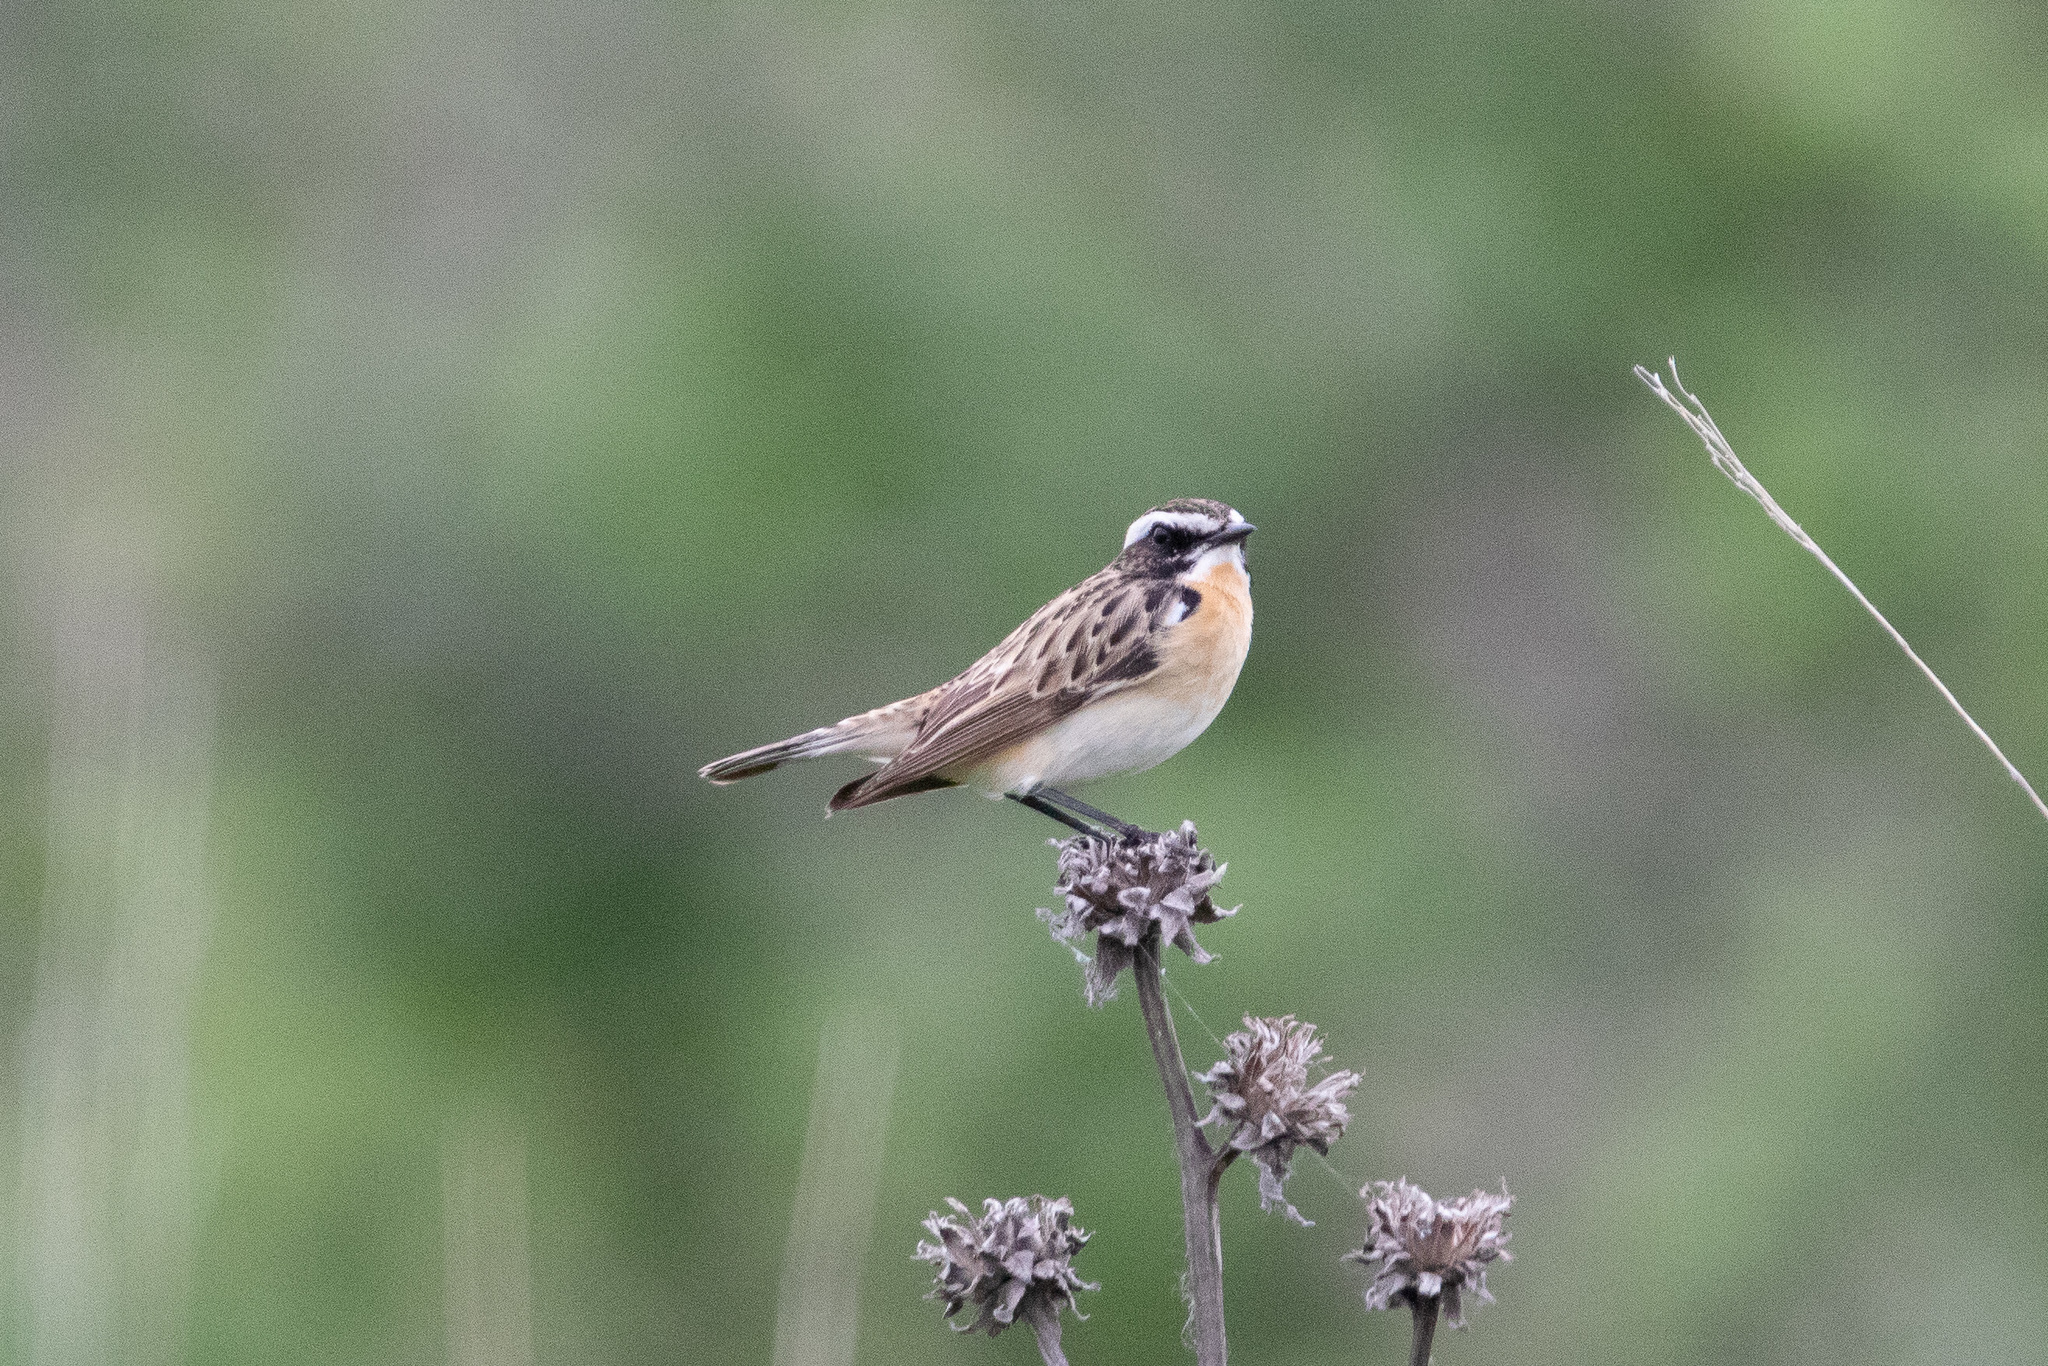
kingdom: Animalia
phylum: Chordata
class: Aves
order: Passeriformes
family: Muscicapidae
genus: Saxicola
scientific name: Saxicola rubetra
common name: Whinchat
